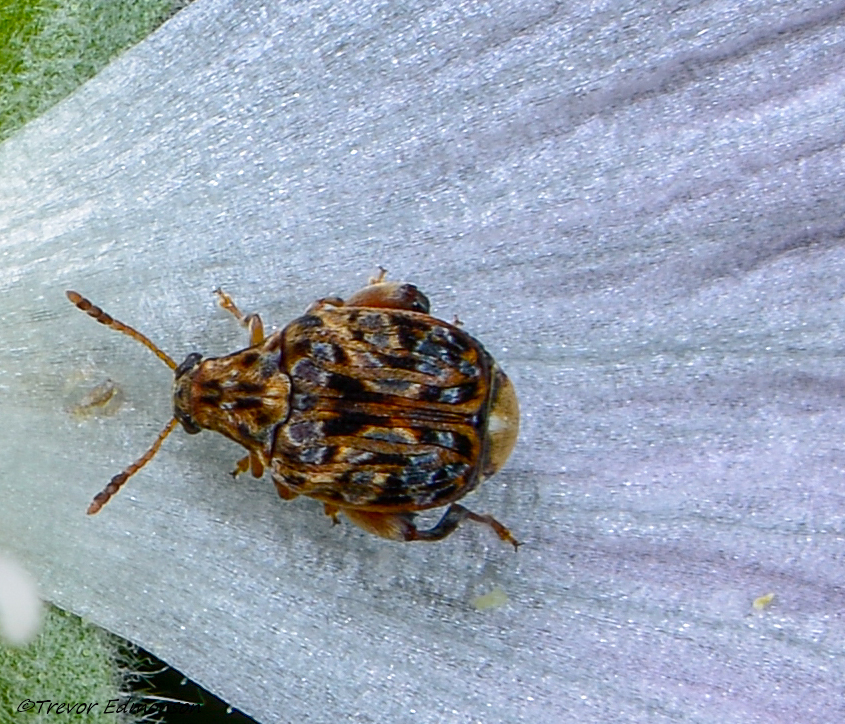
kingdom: Animalia
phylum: Arthropoda
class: Insecta
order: Coleoptera
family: Chrysomelidae
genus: Gibbobruchus
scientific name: Gibbobruchus mimus
